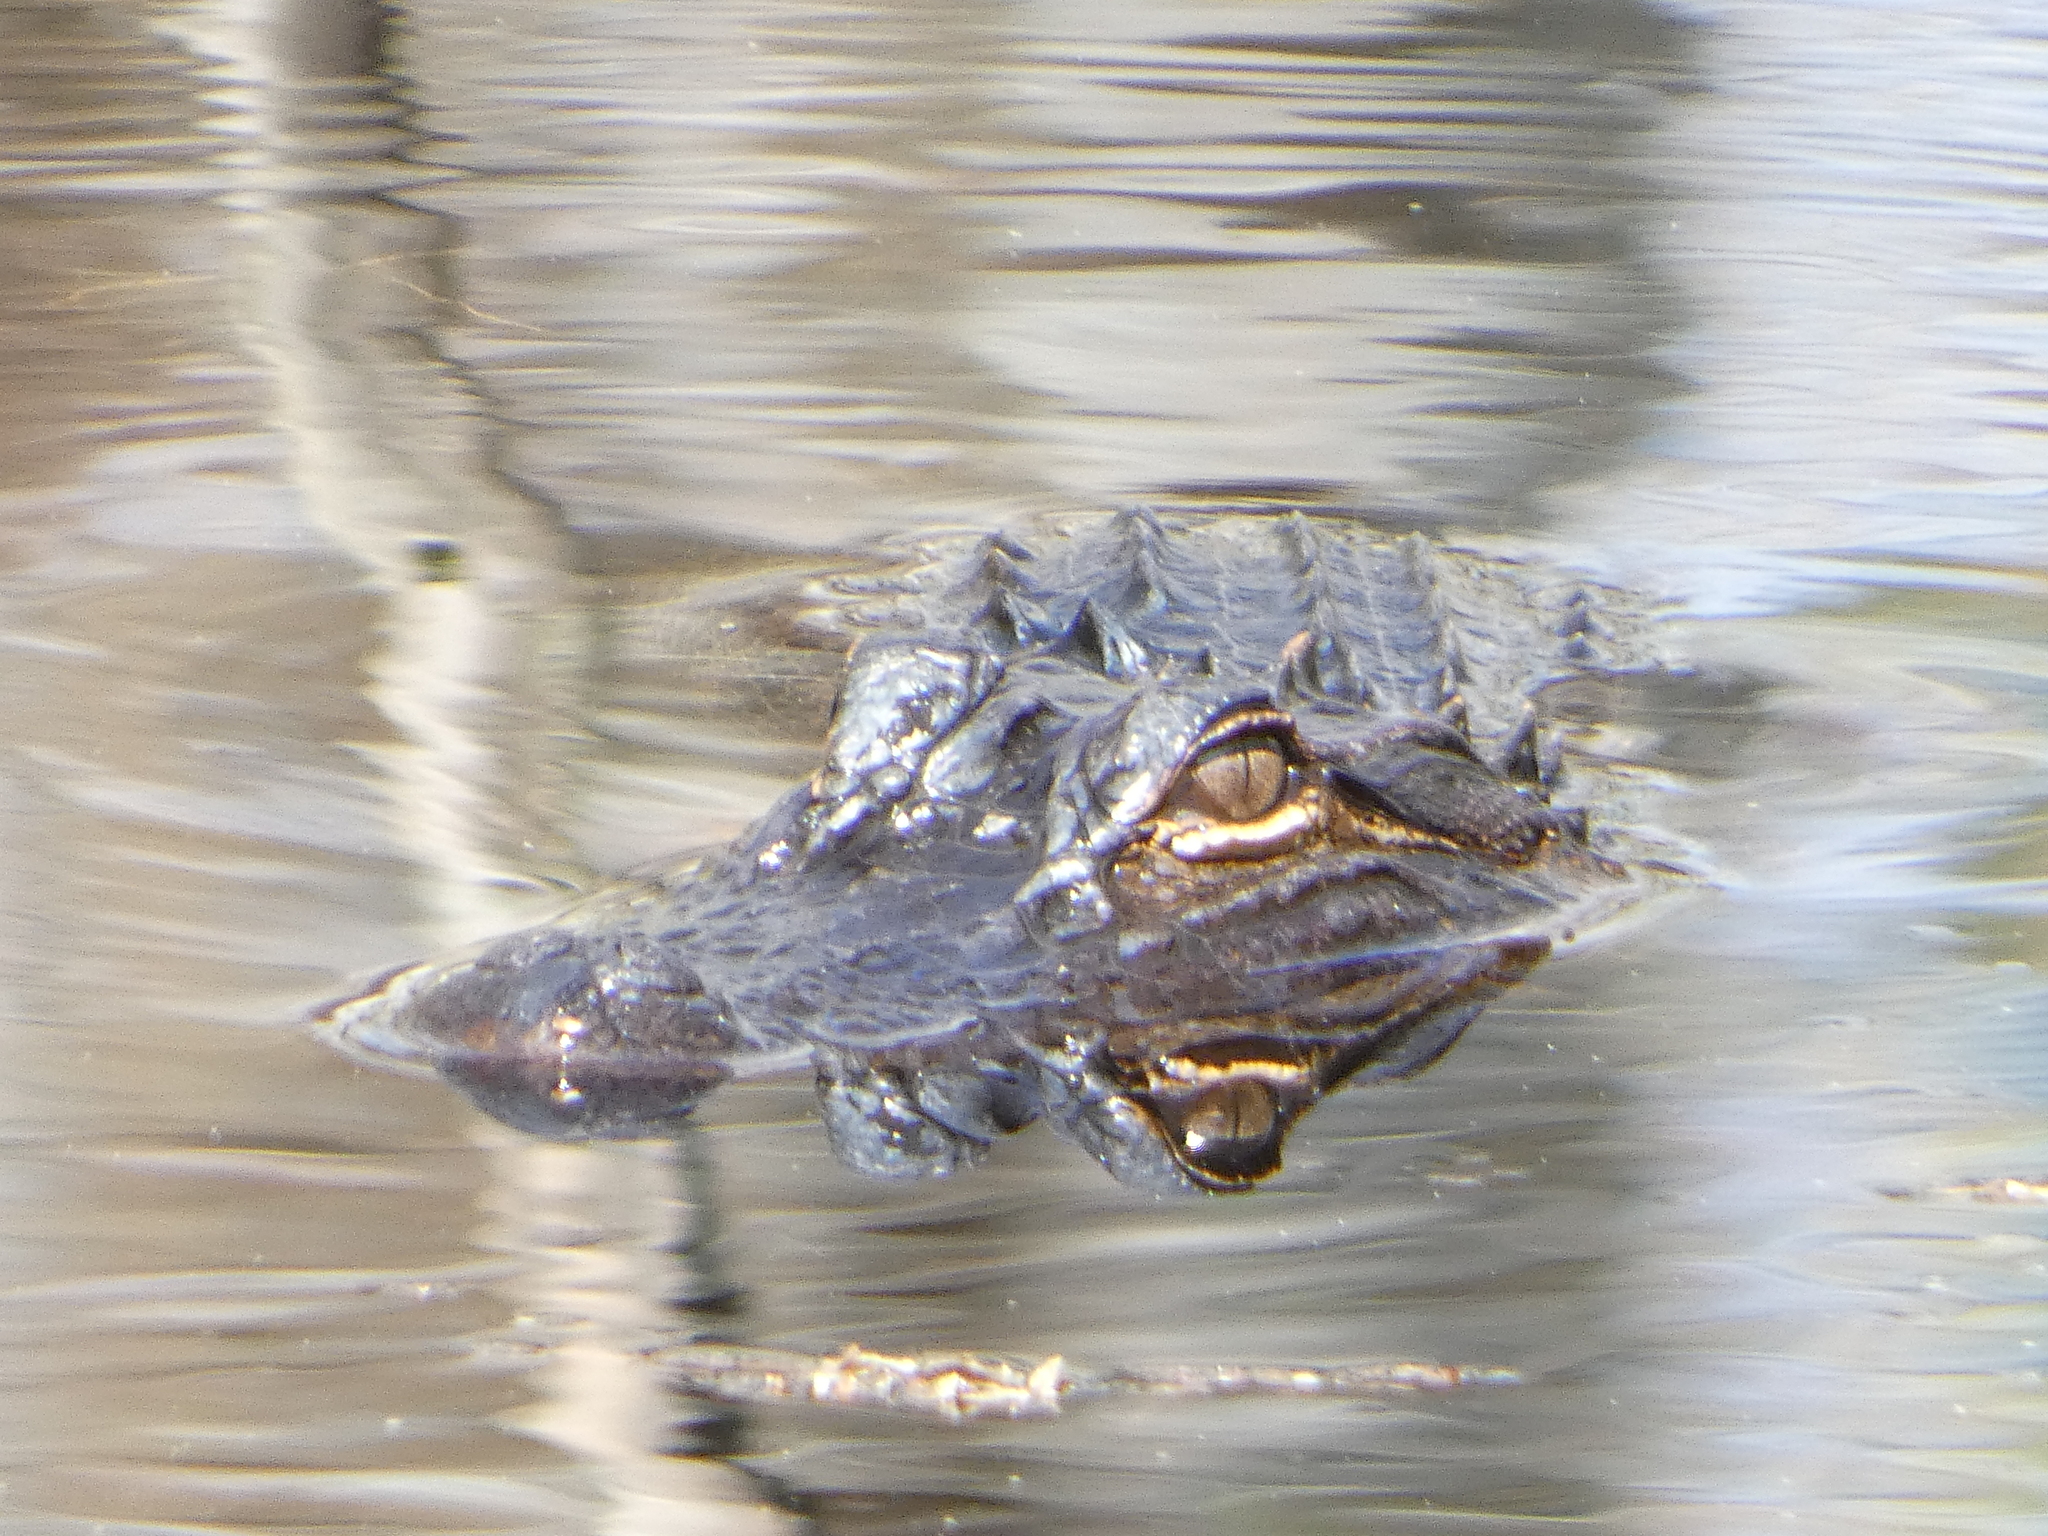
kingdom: Animalia
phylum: Chordata
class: Crocodylia
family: Alligatoridae
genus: Alligator
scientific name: Alligator mississippiensis
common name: American alligator
